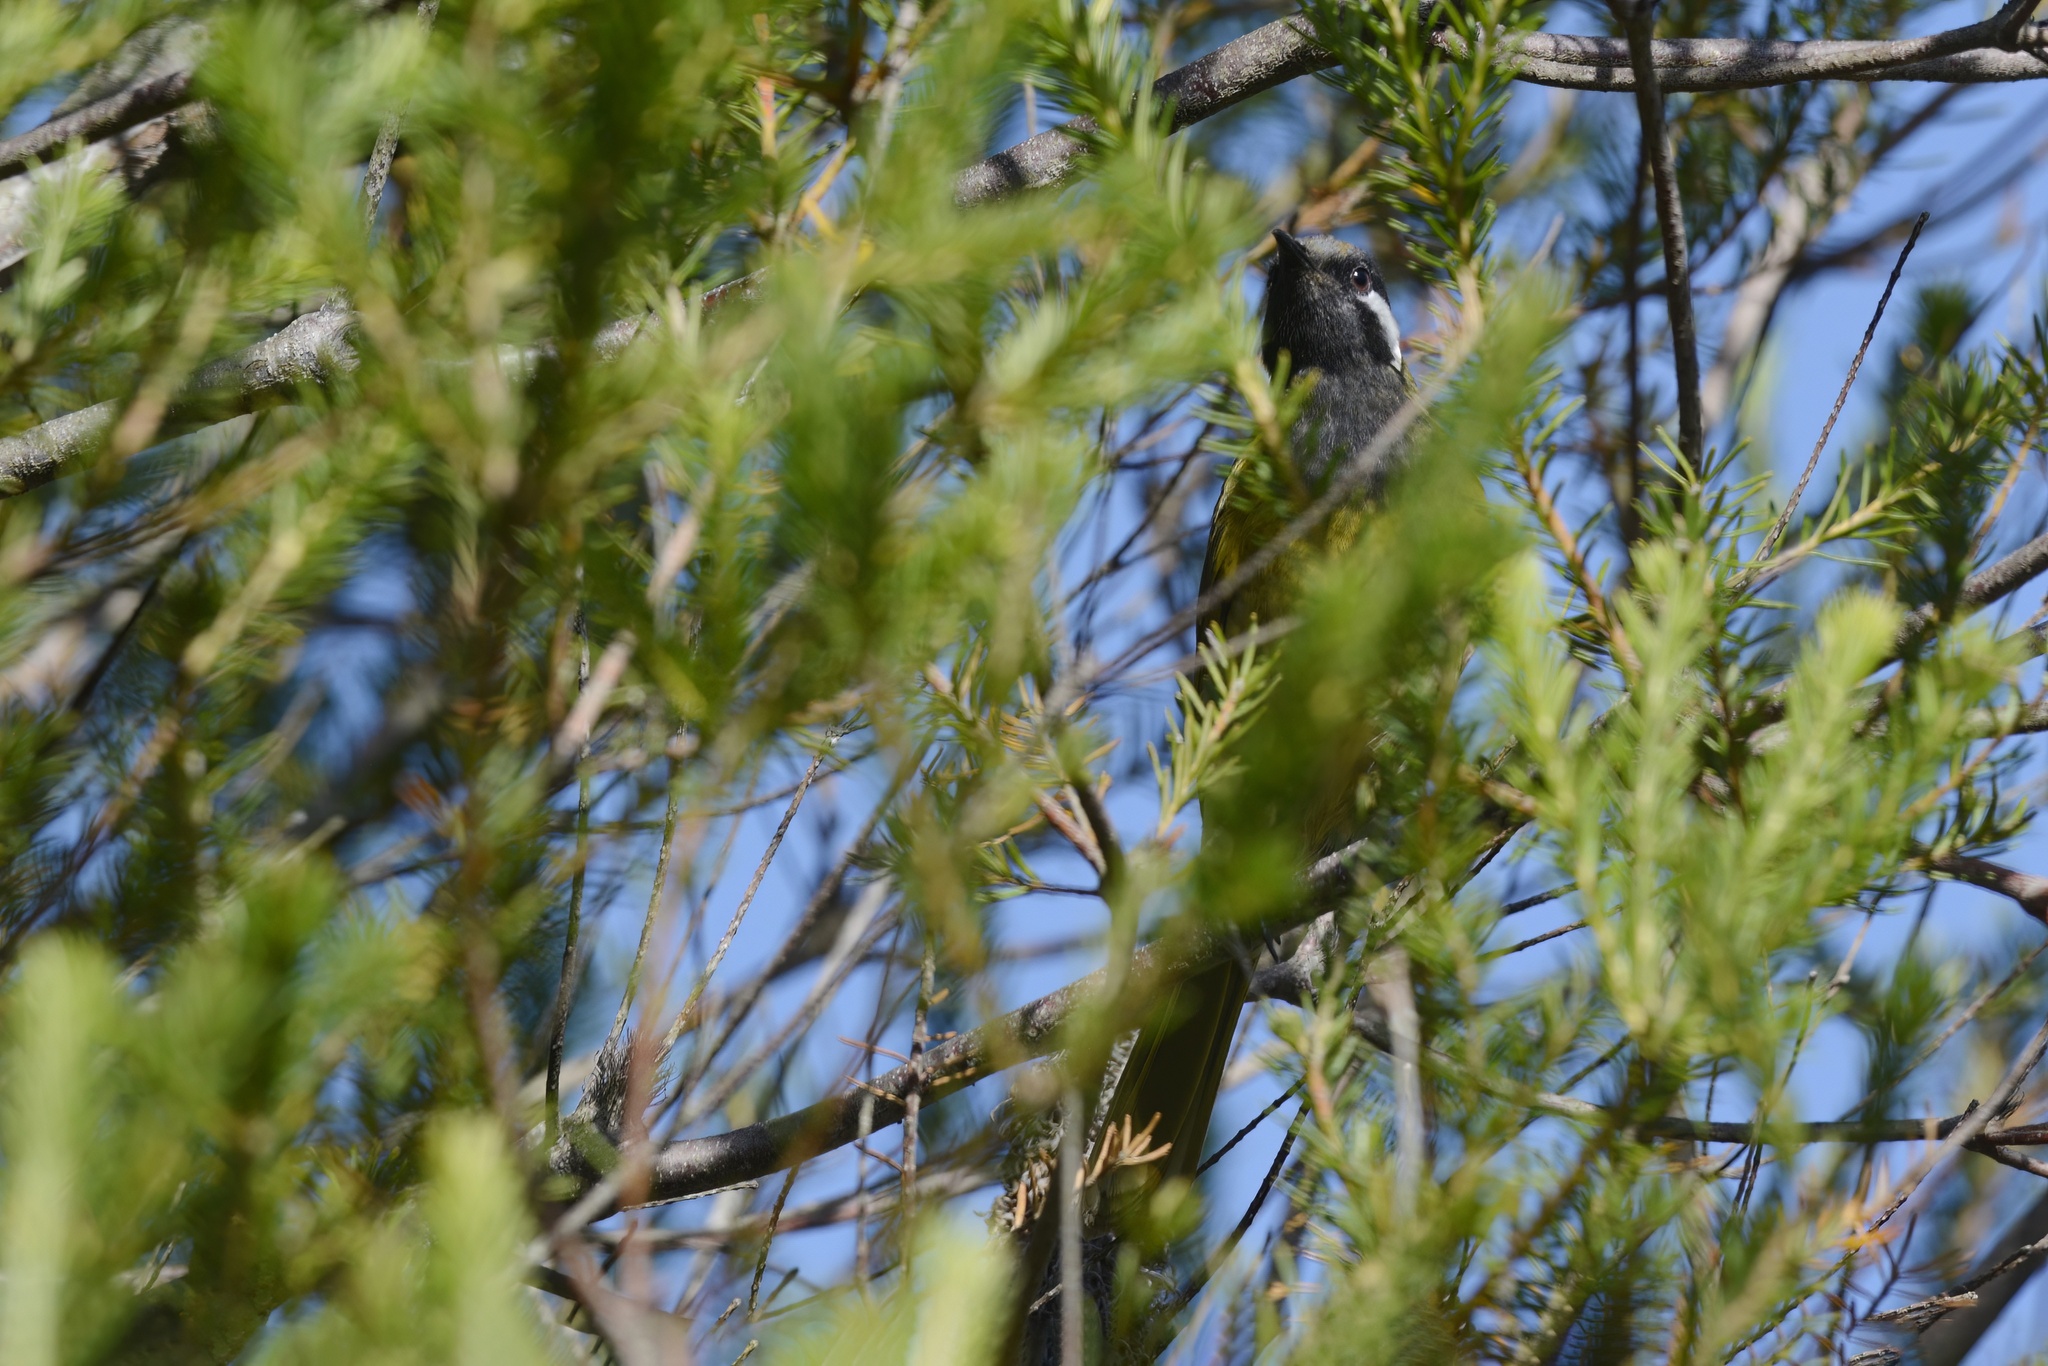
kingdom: Animalia
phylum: Chordata
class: Aves
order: Passeriformes
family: Meliphagidae
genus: Nesoptilotis
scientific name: Nesoptilotis leucotis
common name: White-eared honeyeater
